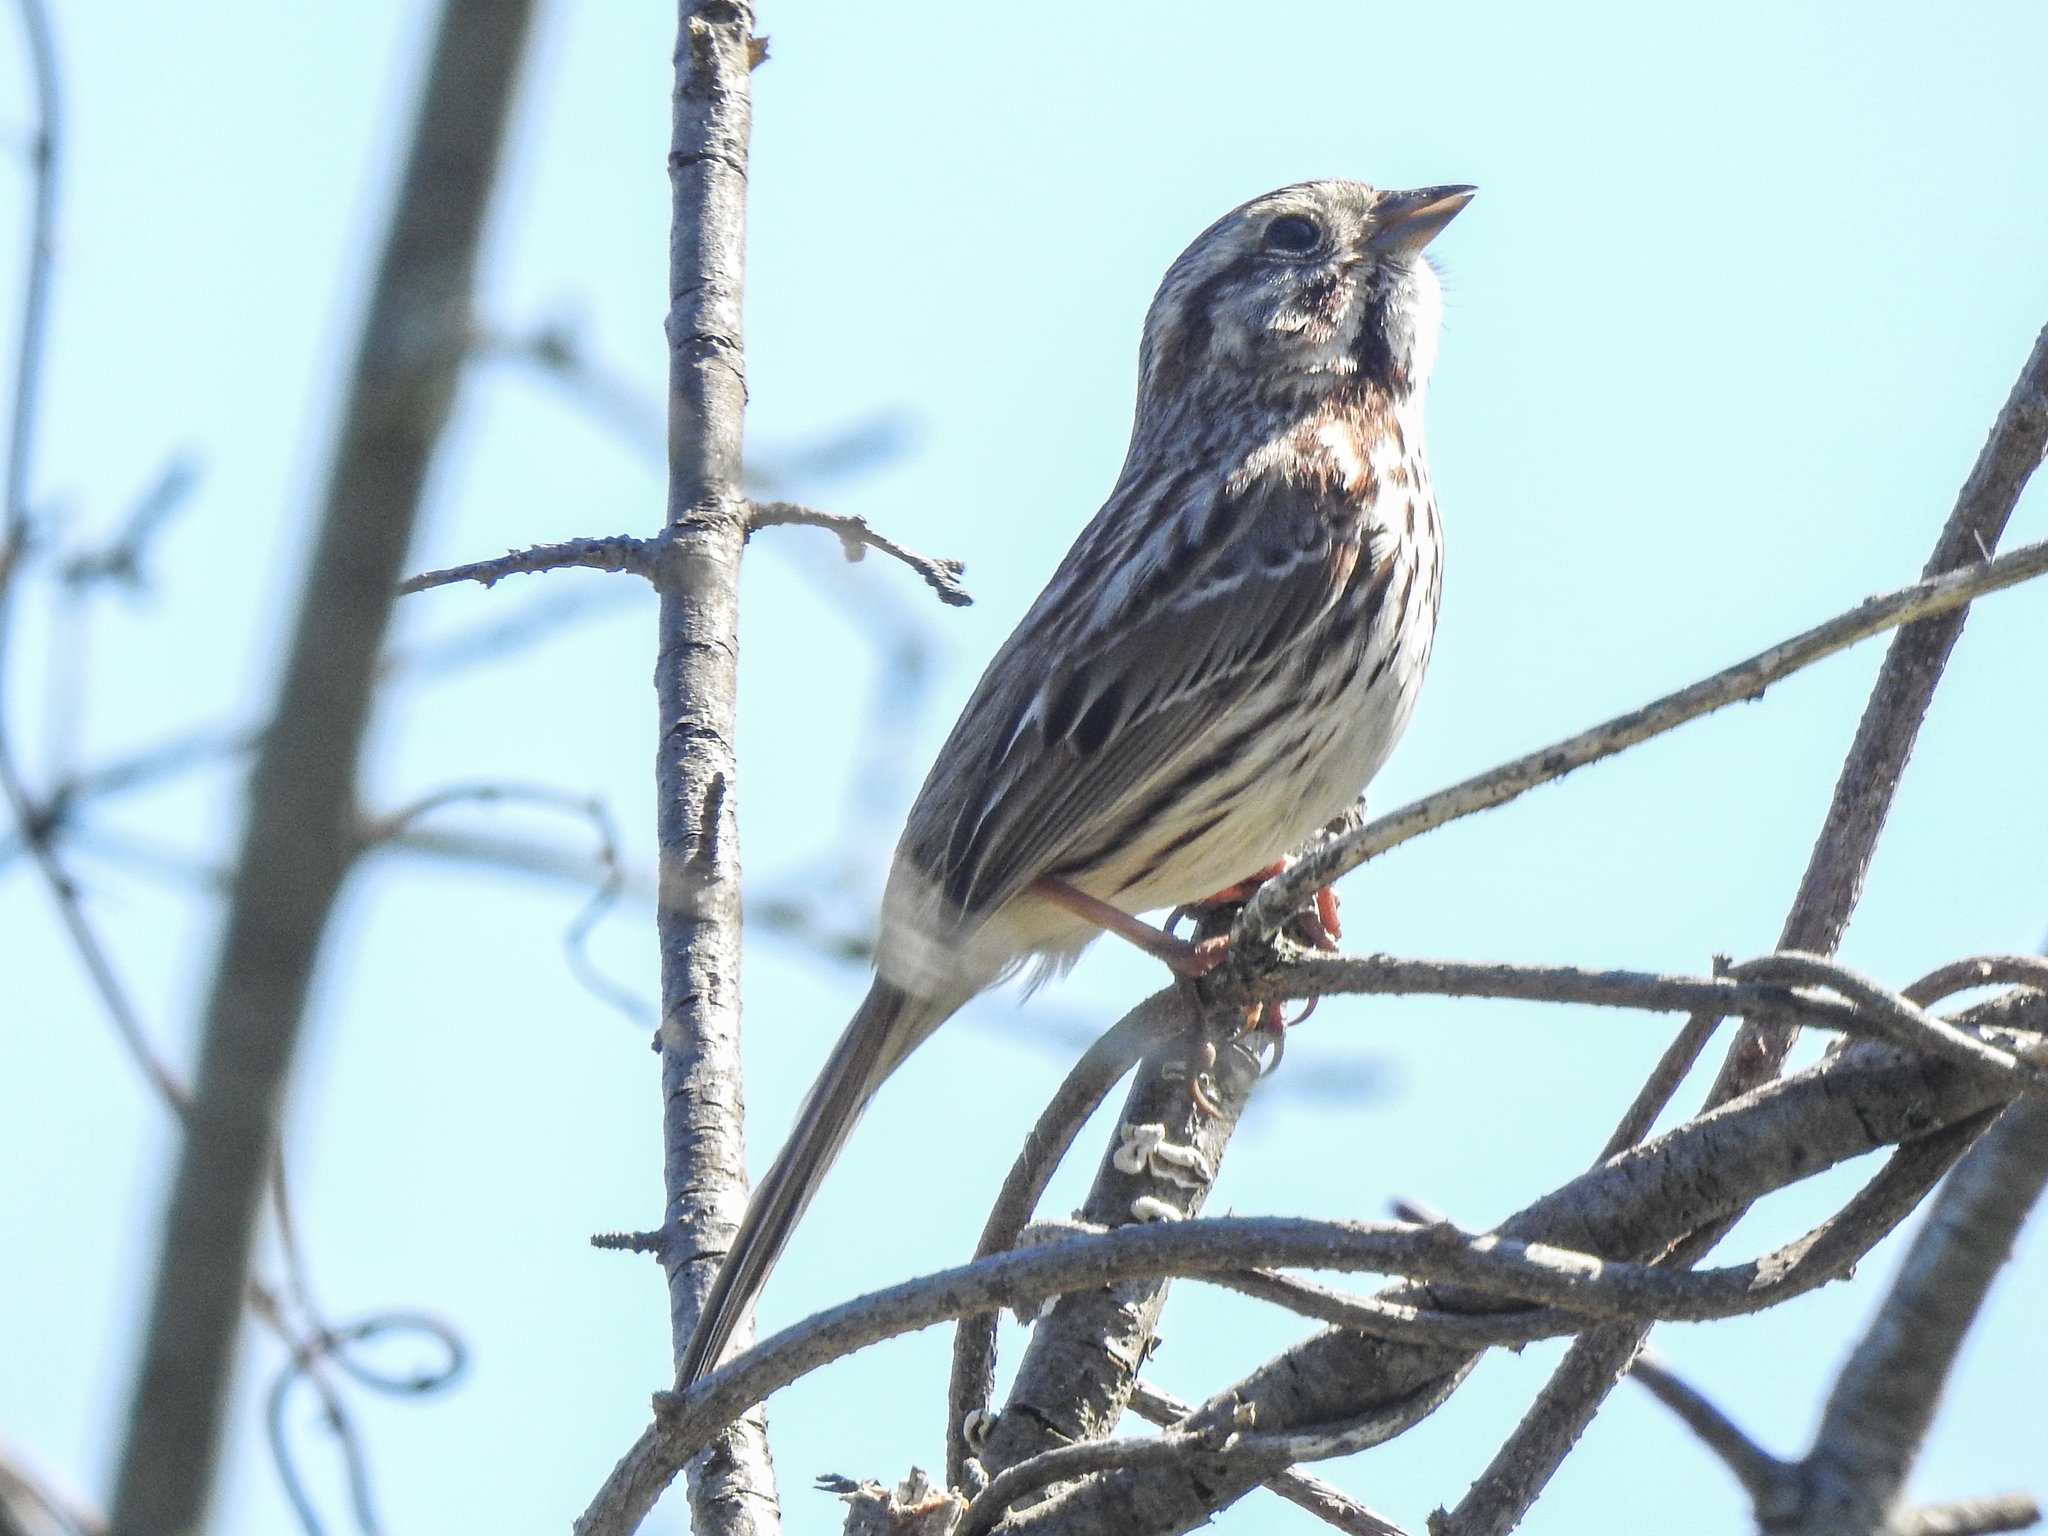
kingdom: Animalia
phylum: Chordata
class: Aves
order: Passeriformes
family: Passerellidae
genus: Melospiza
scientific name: Melospiza melodia
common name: Song sparrow
